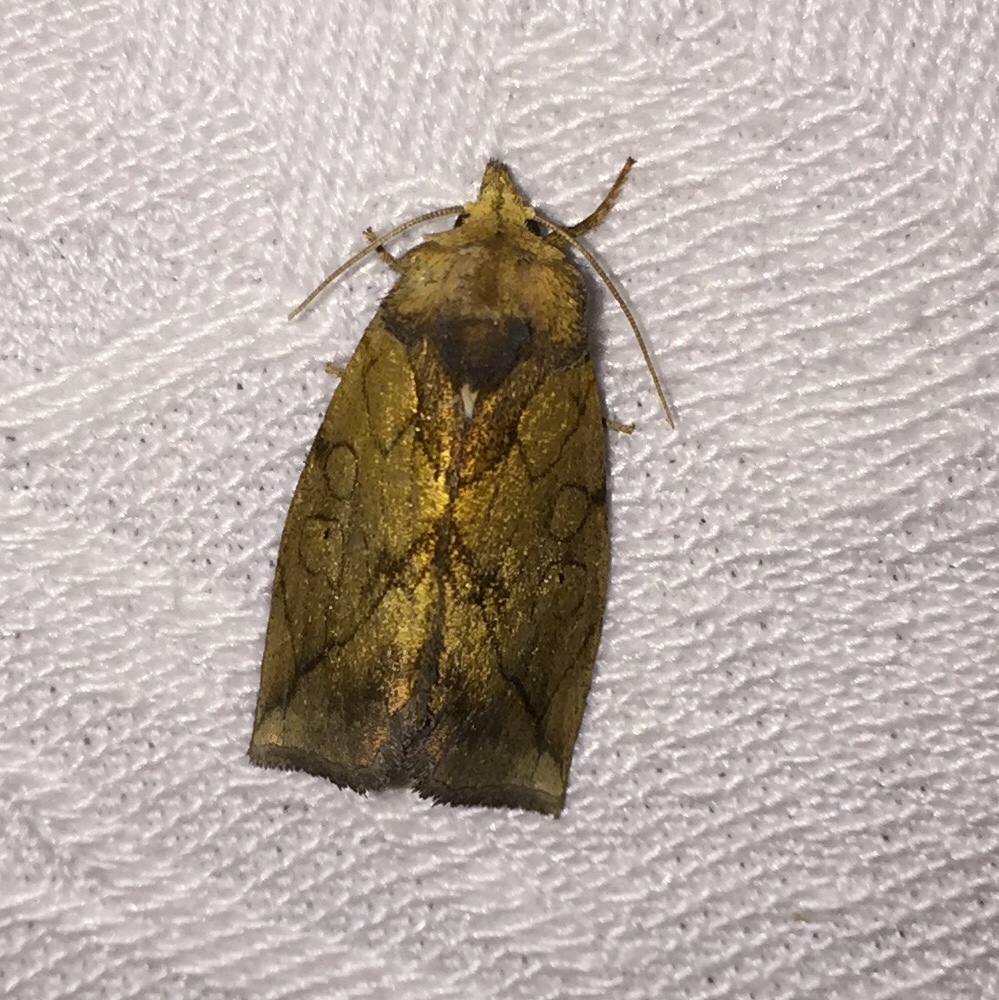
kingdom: Animalia
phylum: Arthropoda
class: Insecta
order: Lepidoptera
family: Noctuidae
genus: Basilodes
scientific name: Basilodes pepita
